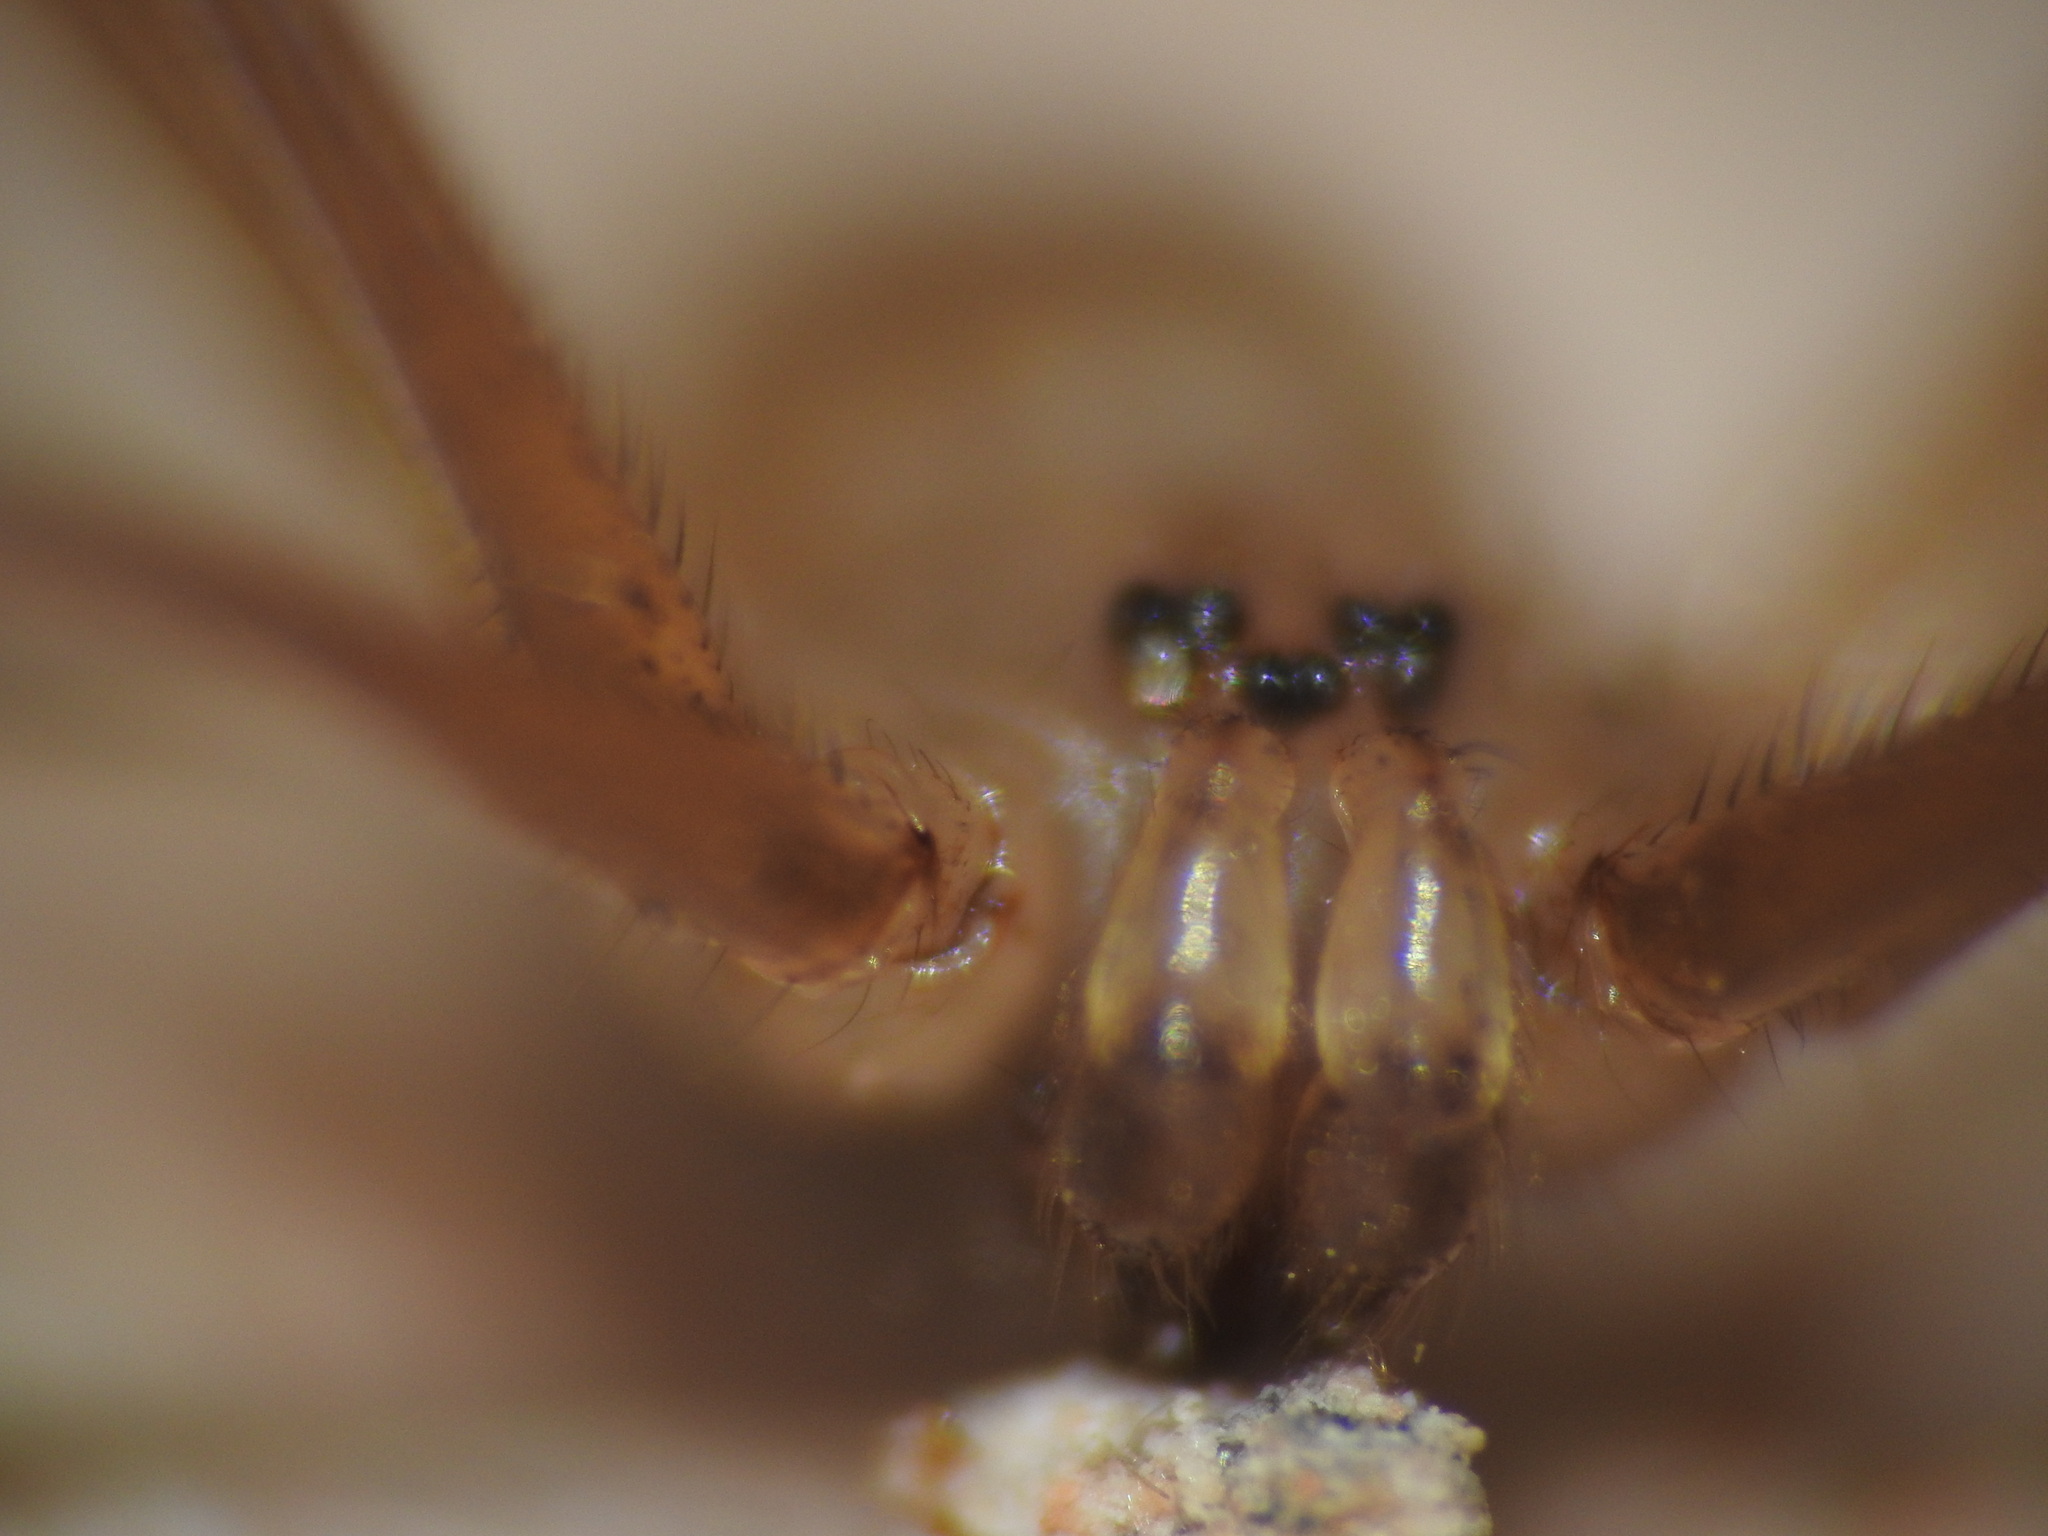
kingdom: Animalia
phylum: Arthropoda
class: Arachnida
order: Araneae
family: Pholcidae
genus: Holocnemus
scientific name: Holocnemus pluchei
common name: Marbled cellar spider
